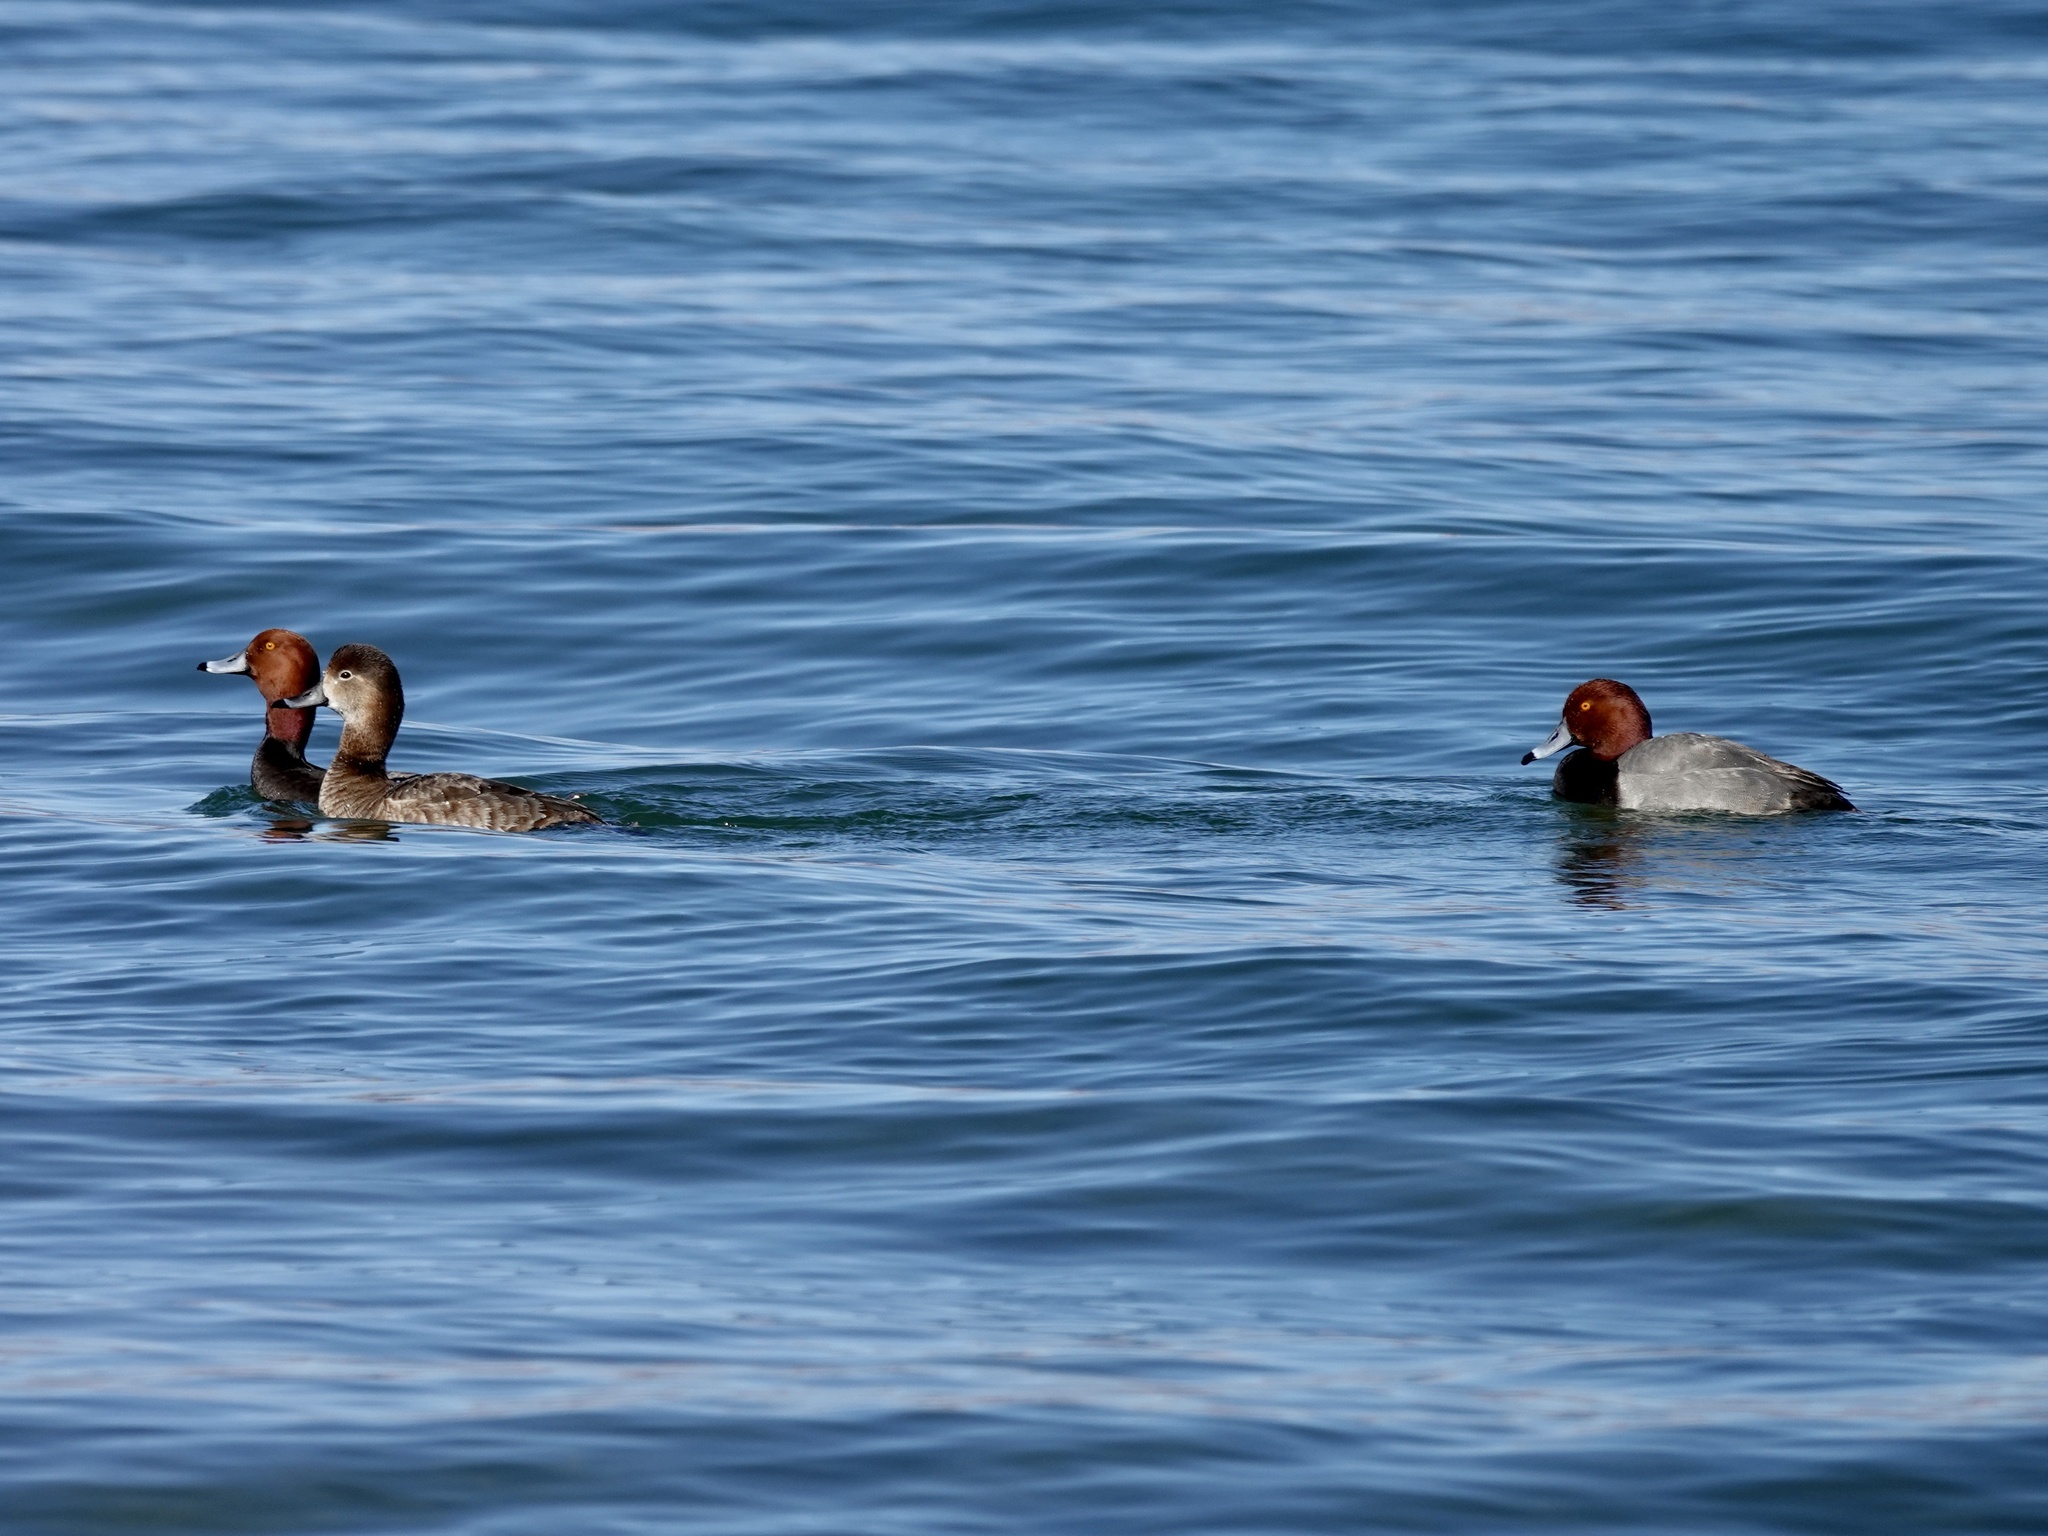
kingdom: Animalia
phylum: Chordata
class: Aves
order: Anseriformes
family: Anatidae
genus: Aythya
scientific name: Aythya americana
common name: Redhead
